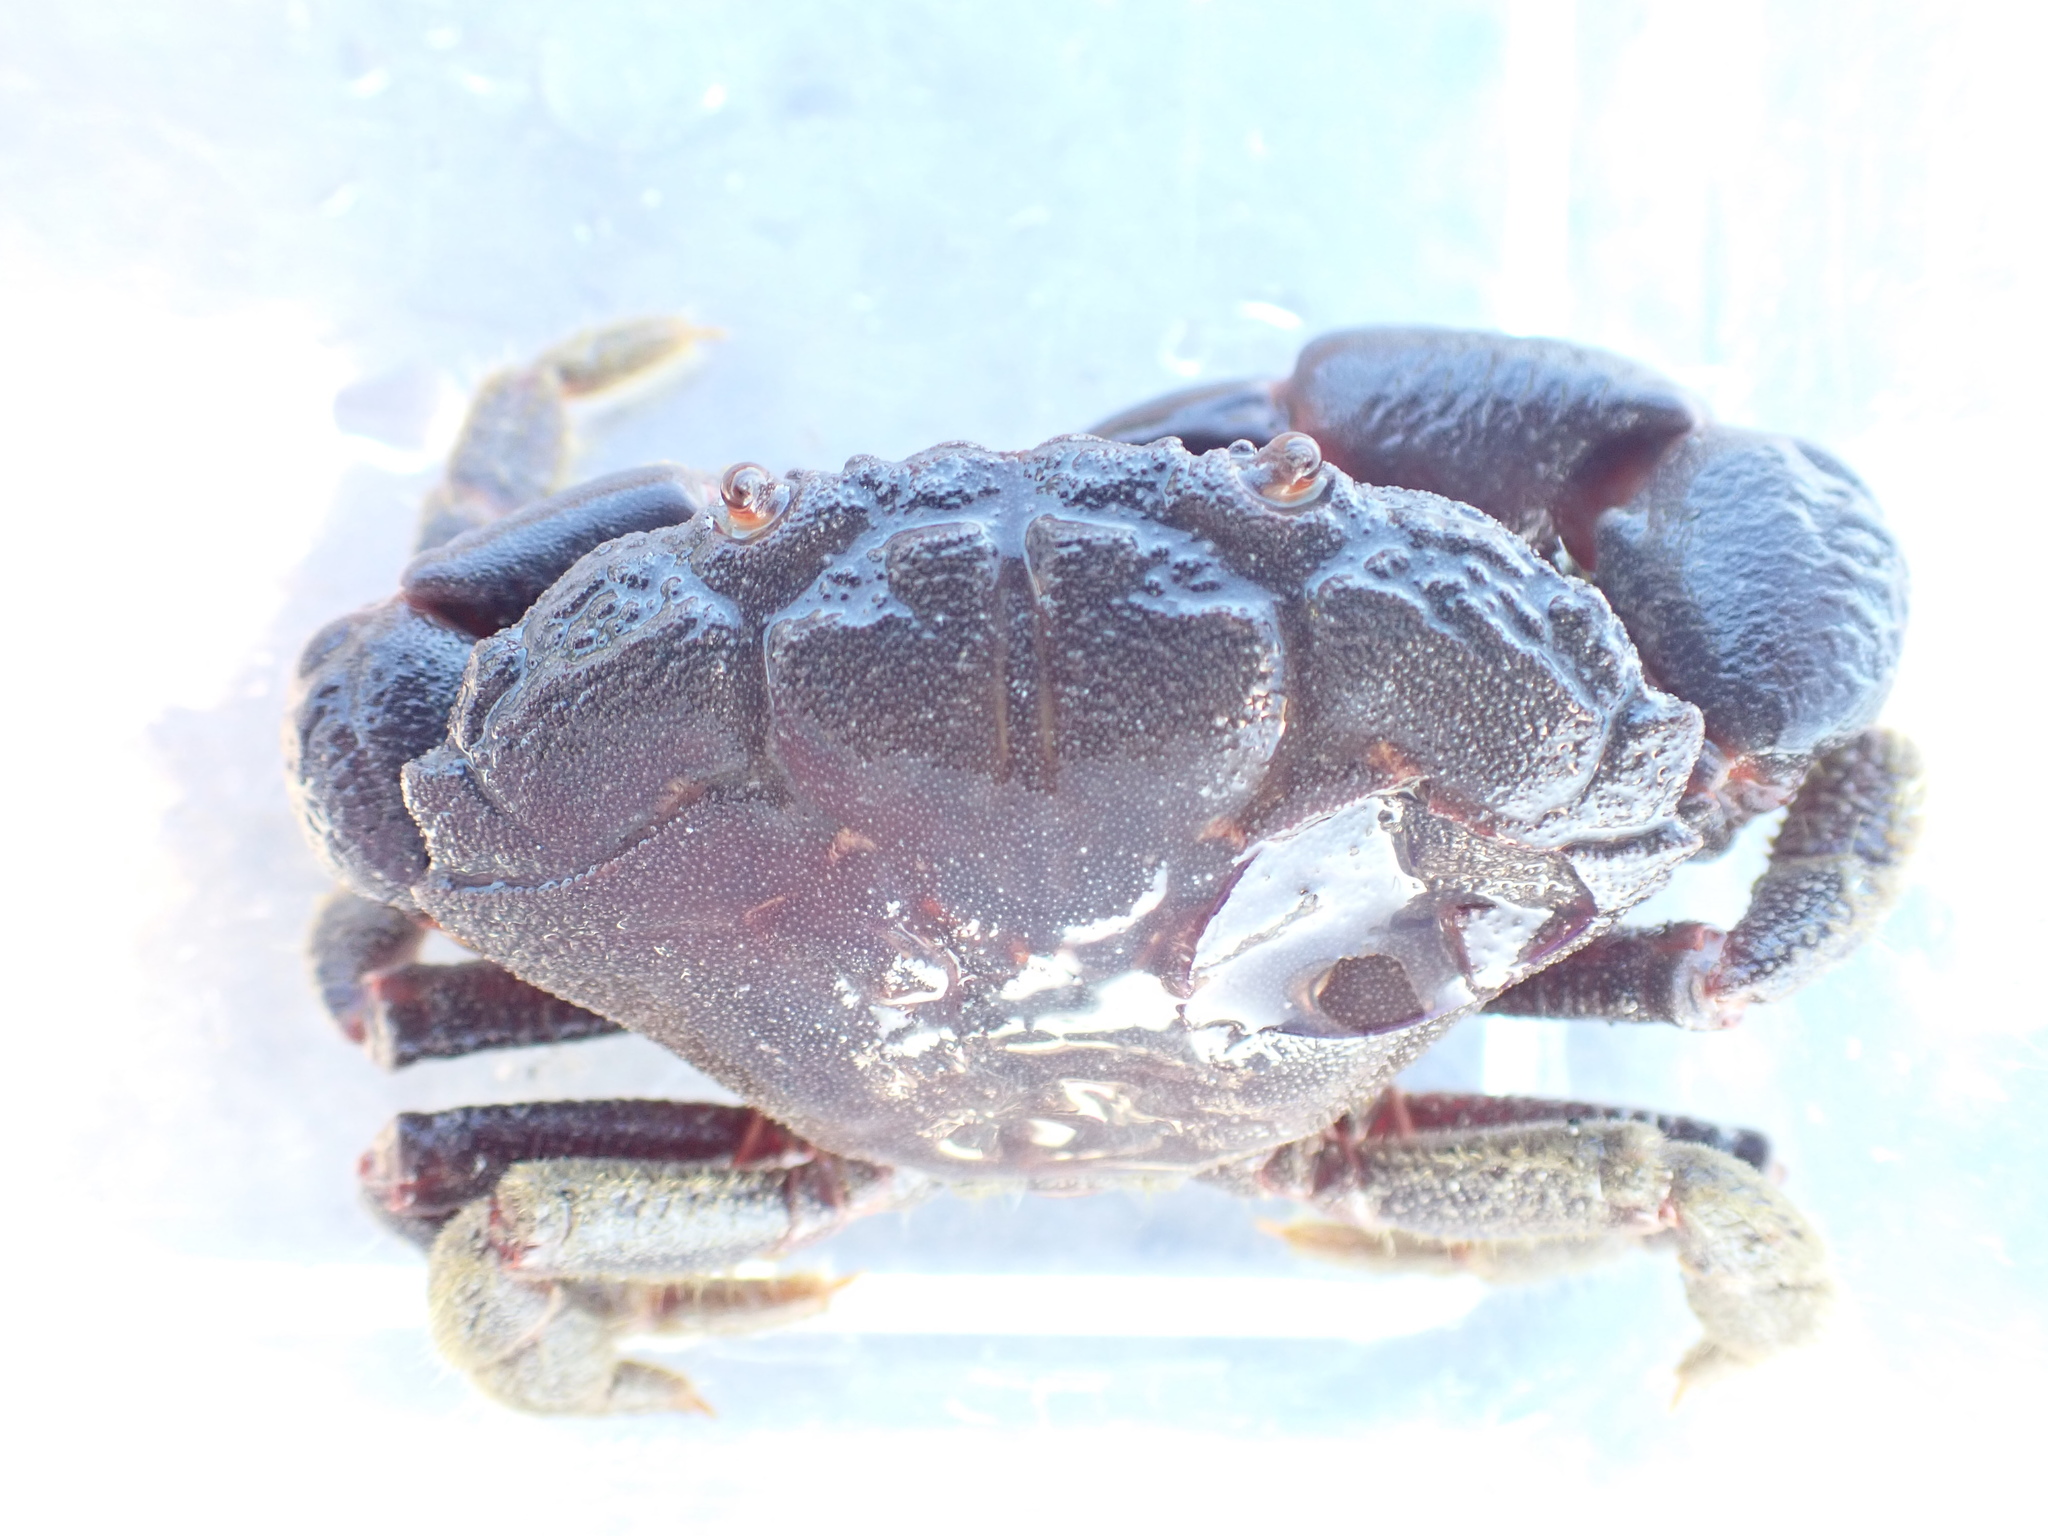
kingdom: Animalia
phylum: Arthropoda
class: Malacostraca
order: Decapoda
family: Oziidae
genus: Ozius
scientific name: Ozius deplanatus
